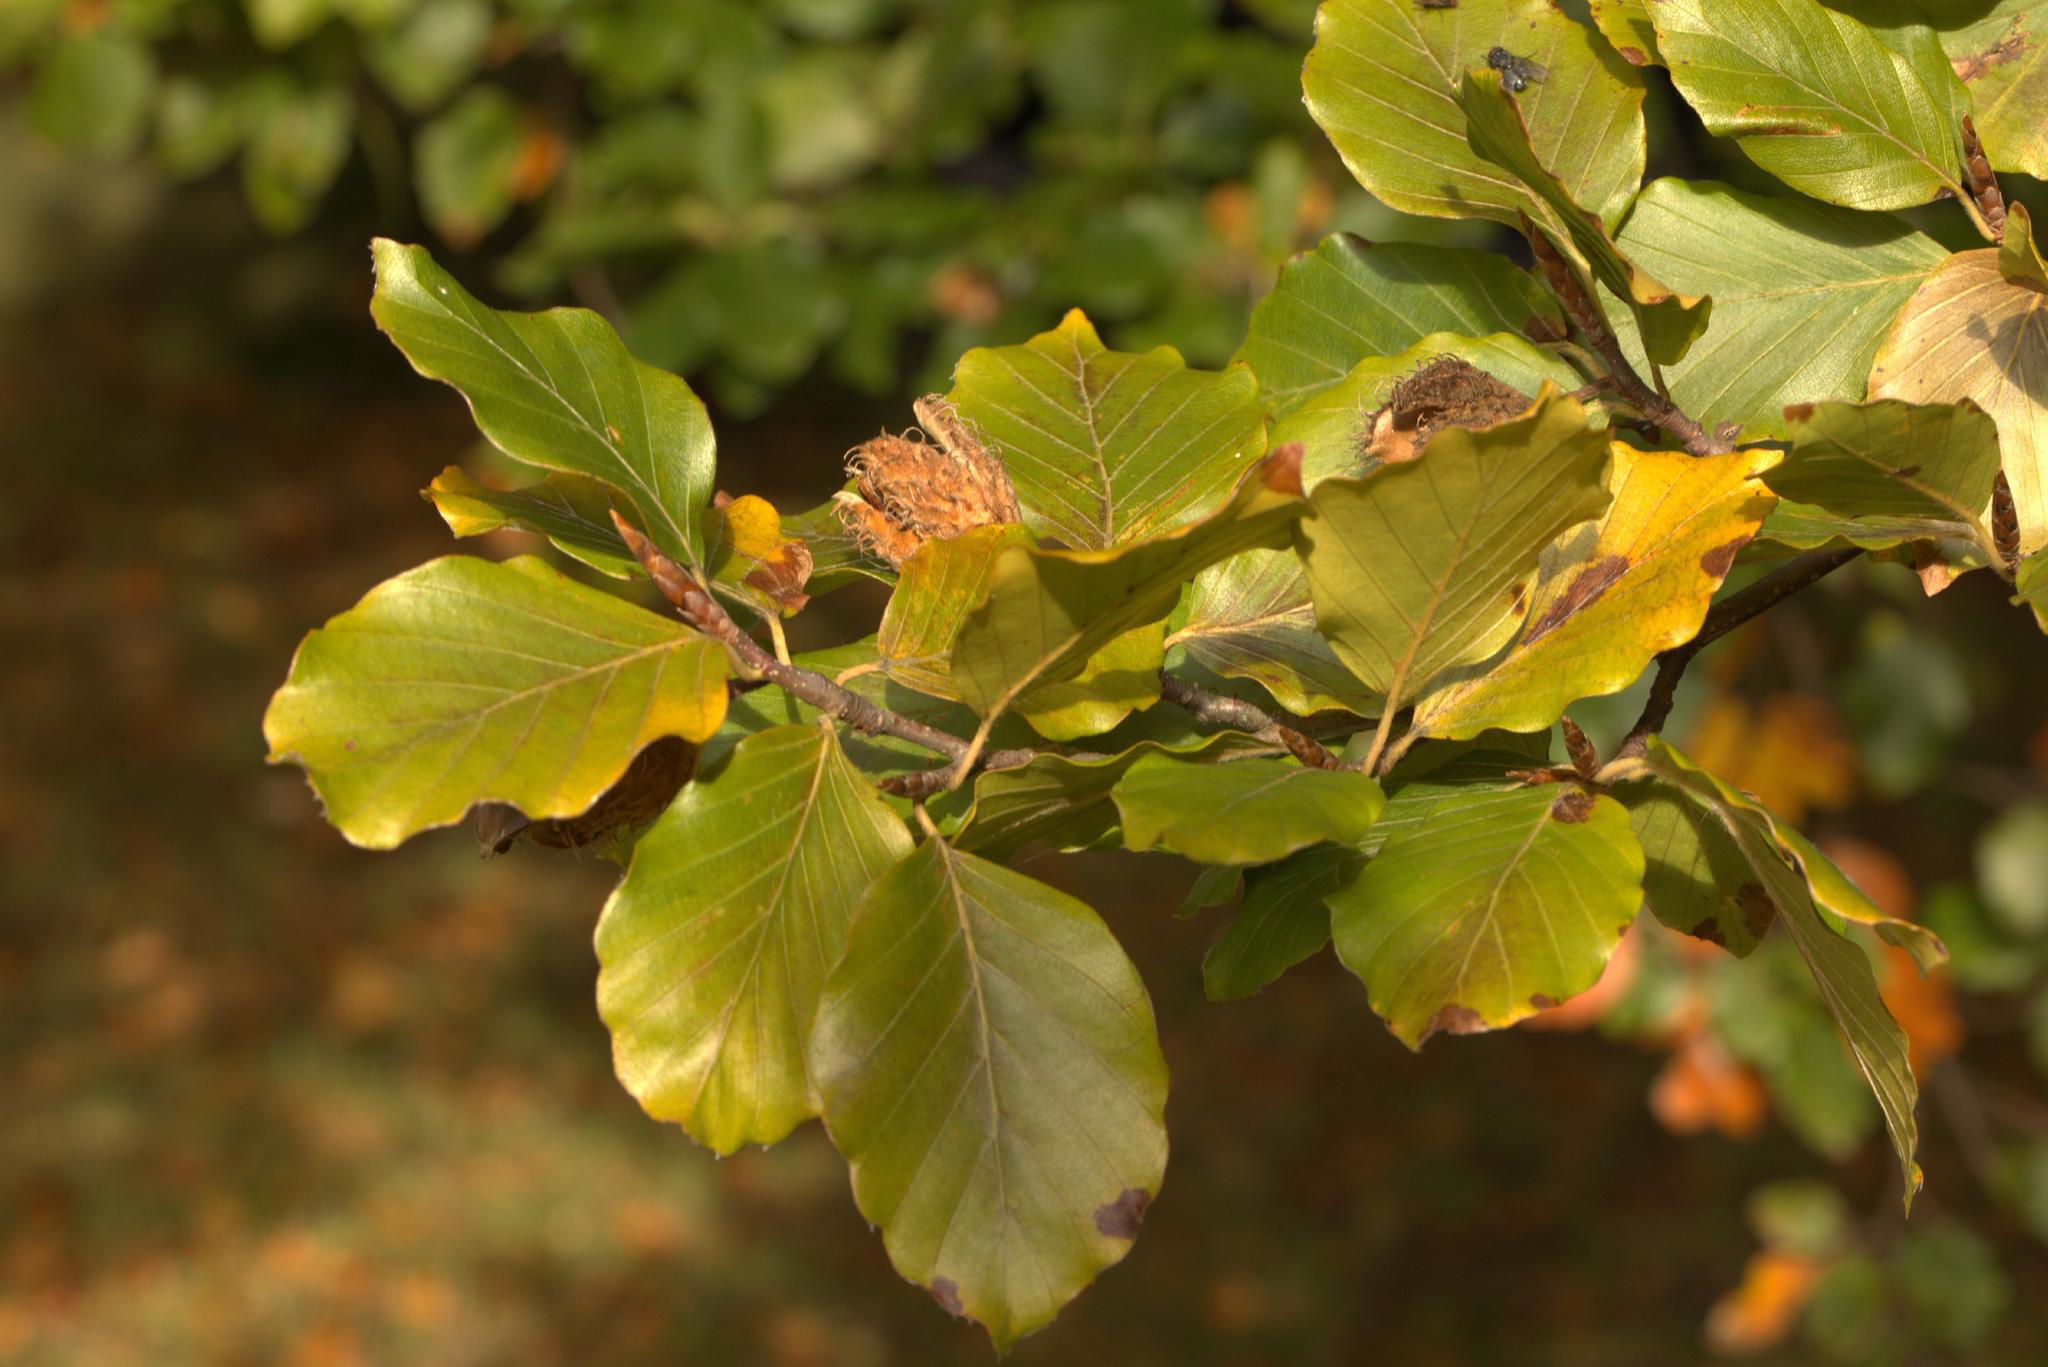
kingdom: Plantae
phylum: Tracheophyta
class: Magnoliopsida
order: Fagales
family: Fagaceae
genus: Fagus
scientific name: Fagus sylvatica
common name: Beech
